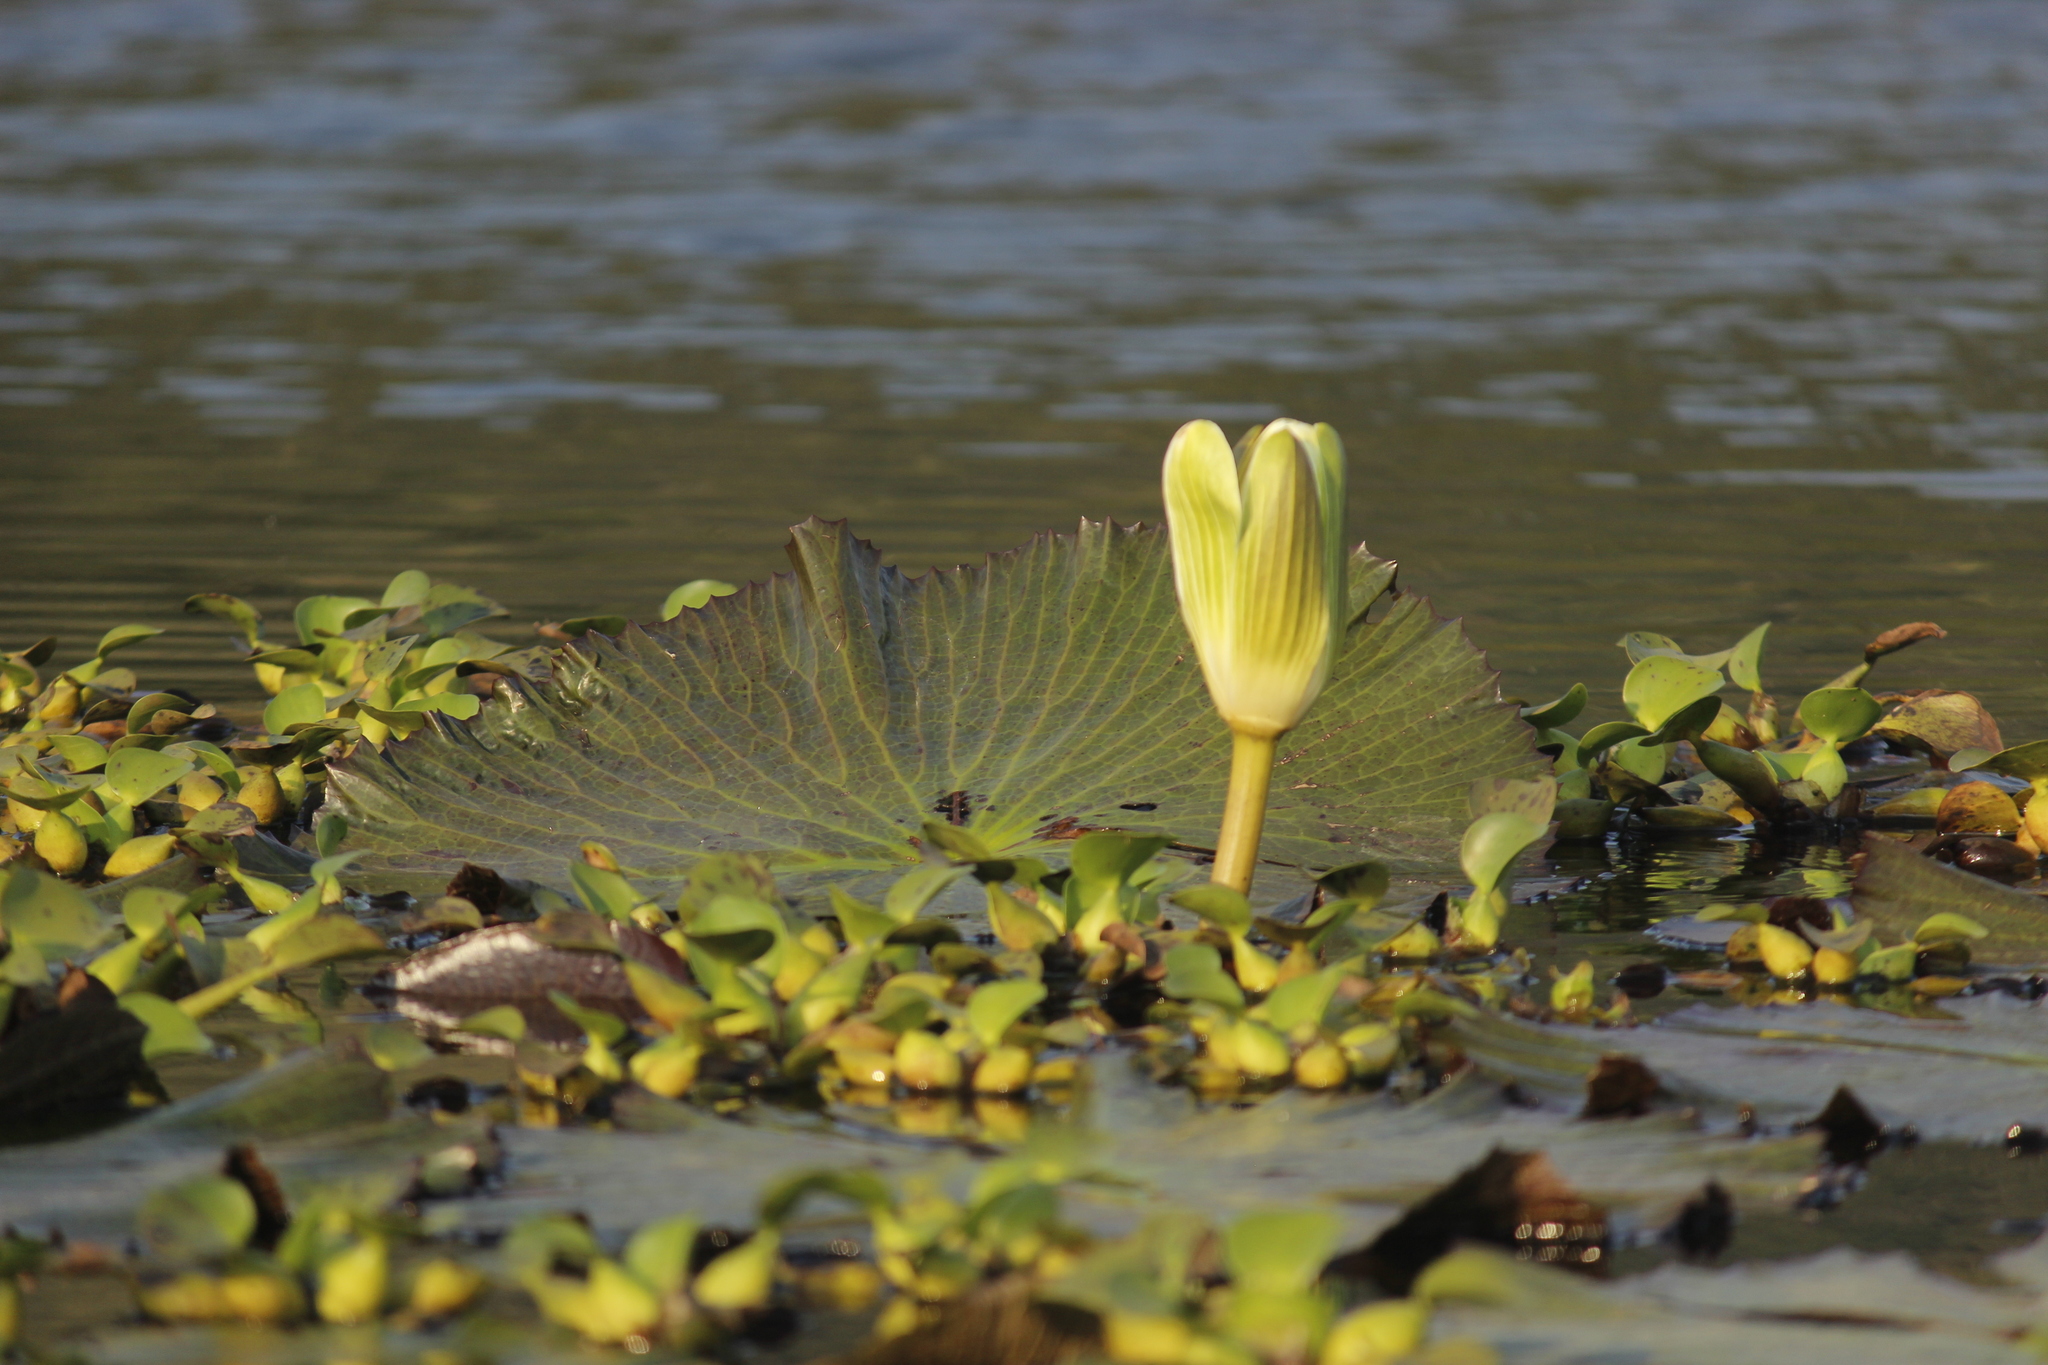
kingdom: Plantae
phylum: Tracheophyta
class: Magnoliopsida
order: Nymphaeales
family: Nymphaeaceae
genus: Nymphaea
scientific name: Nymphaea lotus
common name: White egyptian lotus
